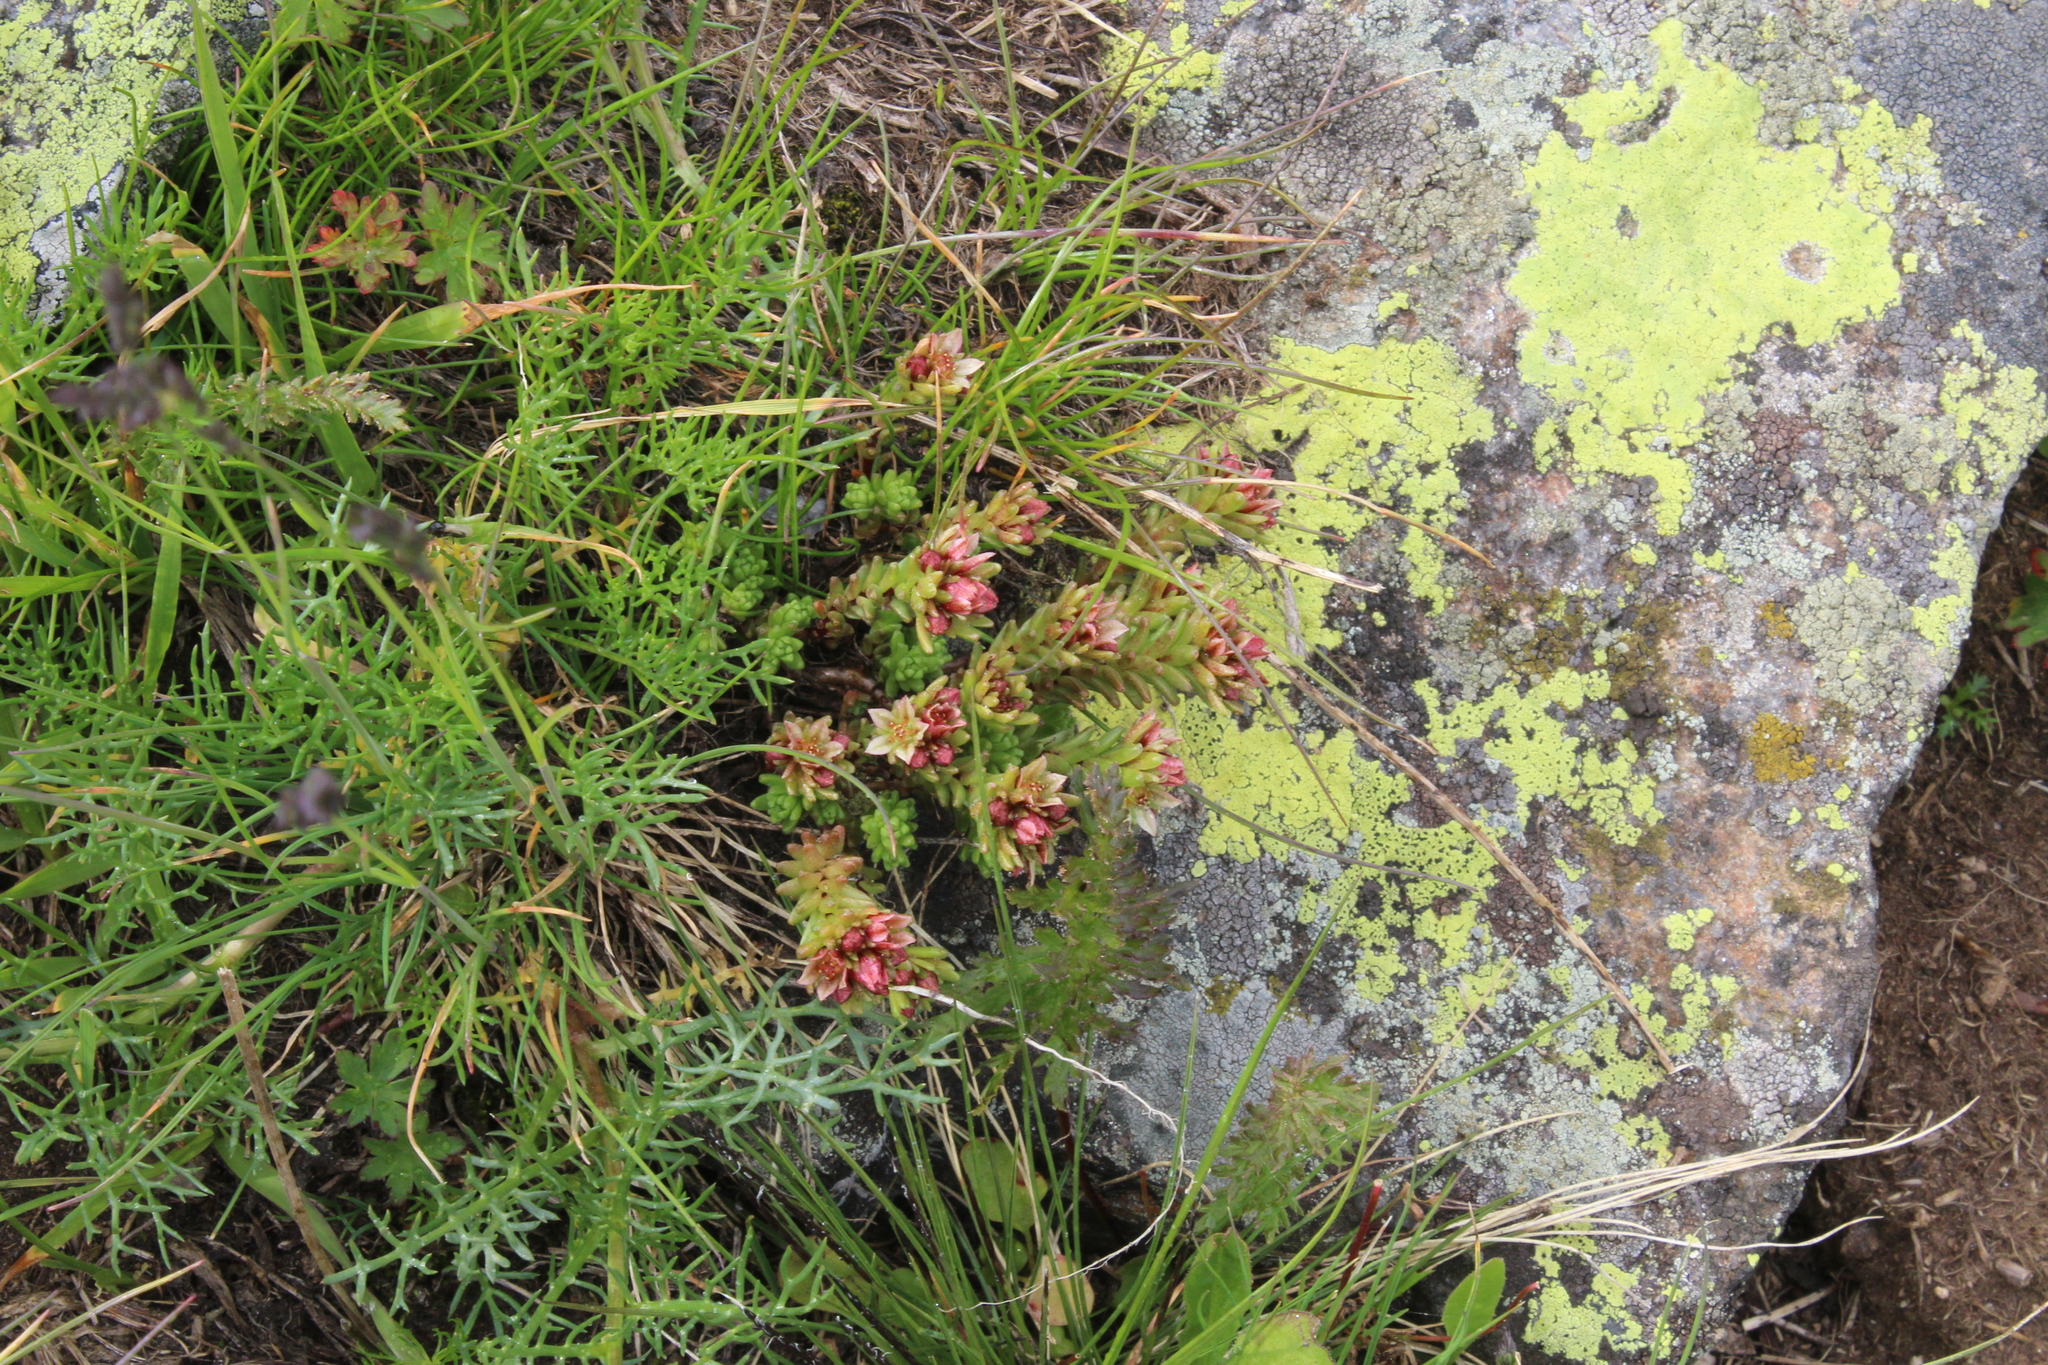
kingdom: Plantae
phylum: Tracheophyta
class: Magnoliopsida
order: Saxifragales
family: Crassulaceae
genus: Sedum
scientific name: Sedum tenellum
